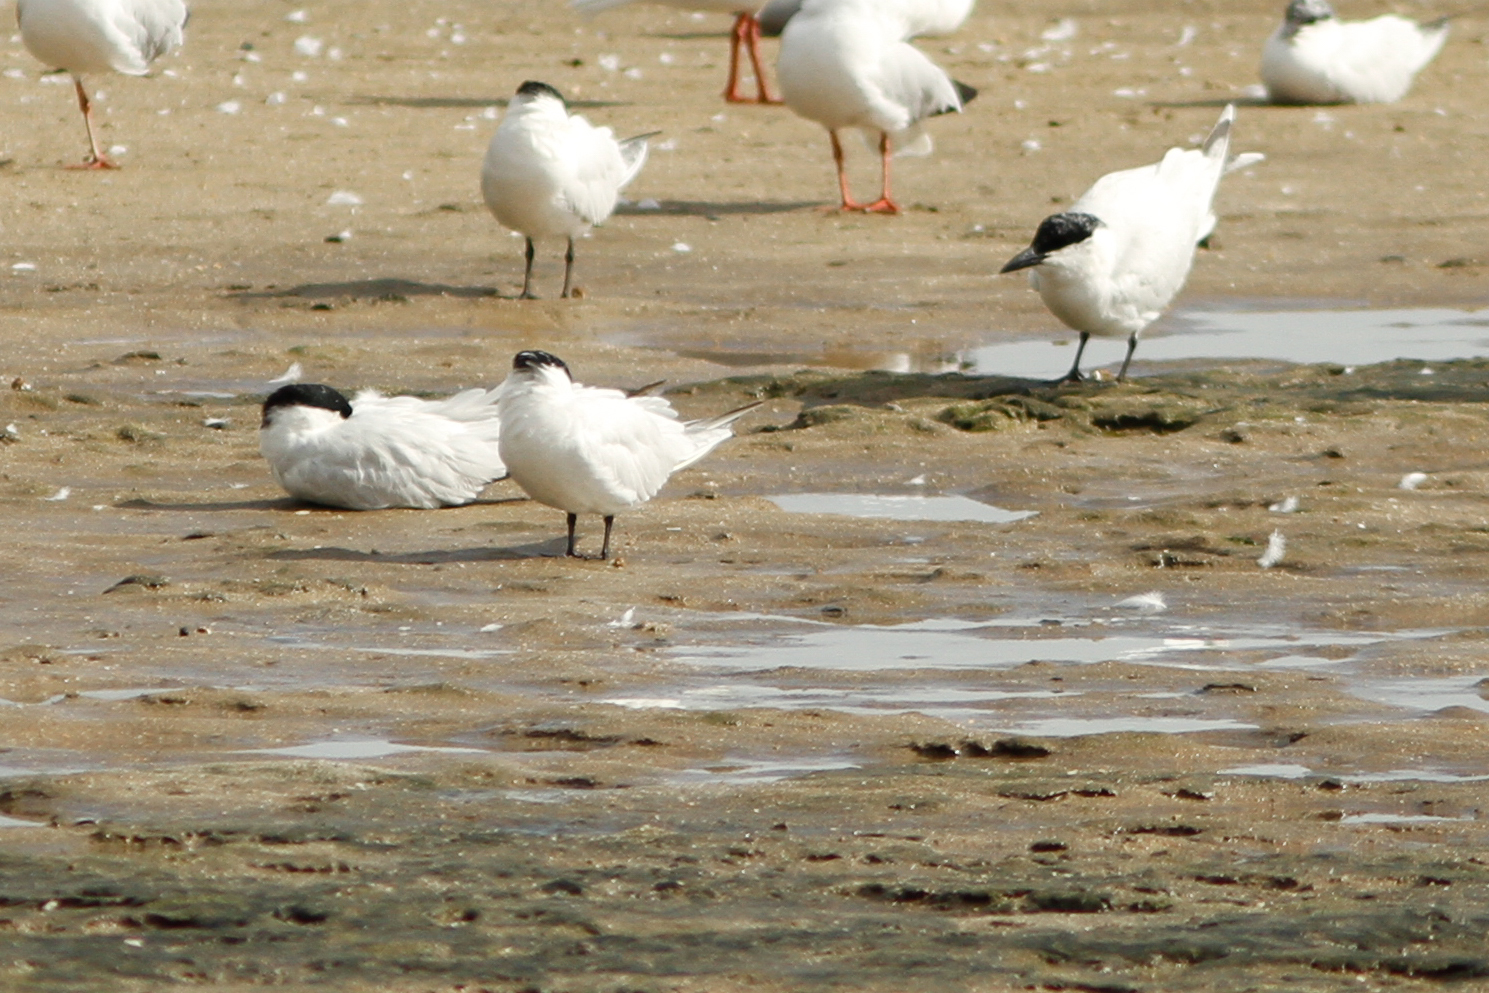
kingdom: Animalia
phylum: Chordata
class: Aves
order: Charadriiformes
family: Laridae
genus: Gelochelidon
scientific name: Gelochelidon macrotarsa
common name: Australian tern
